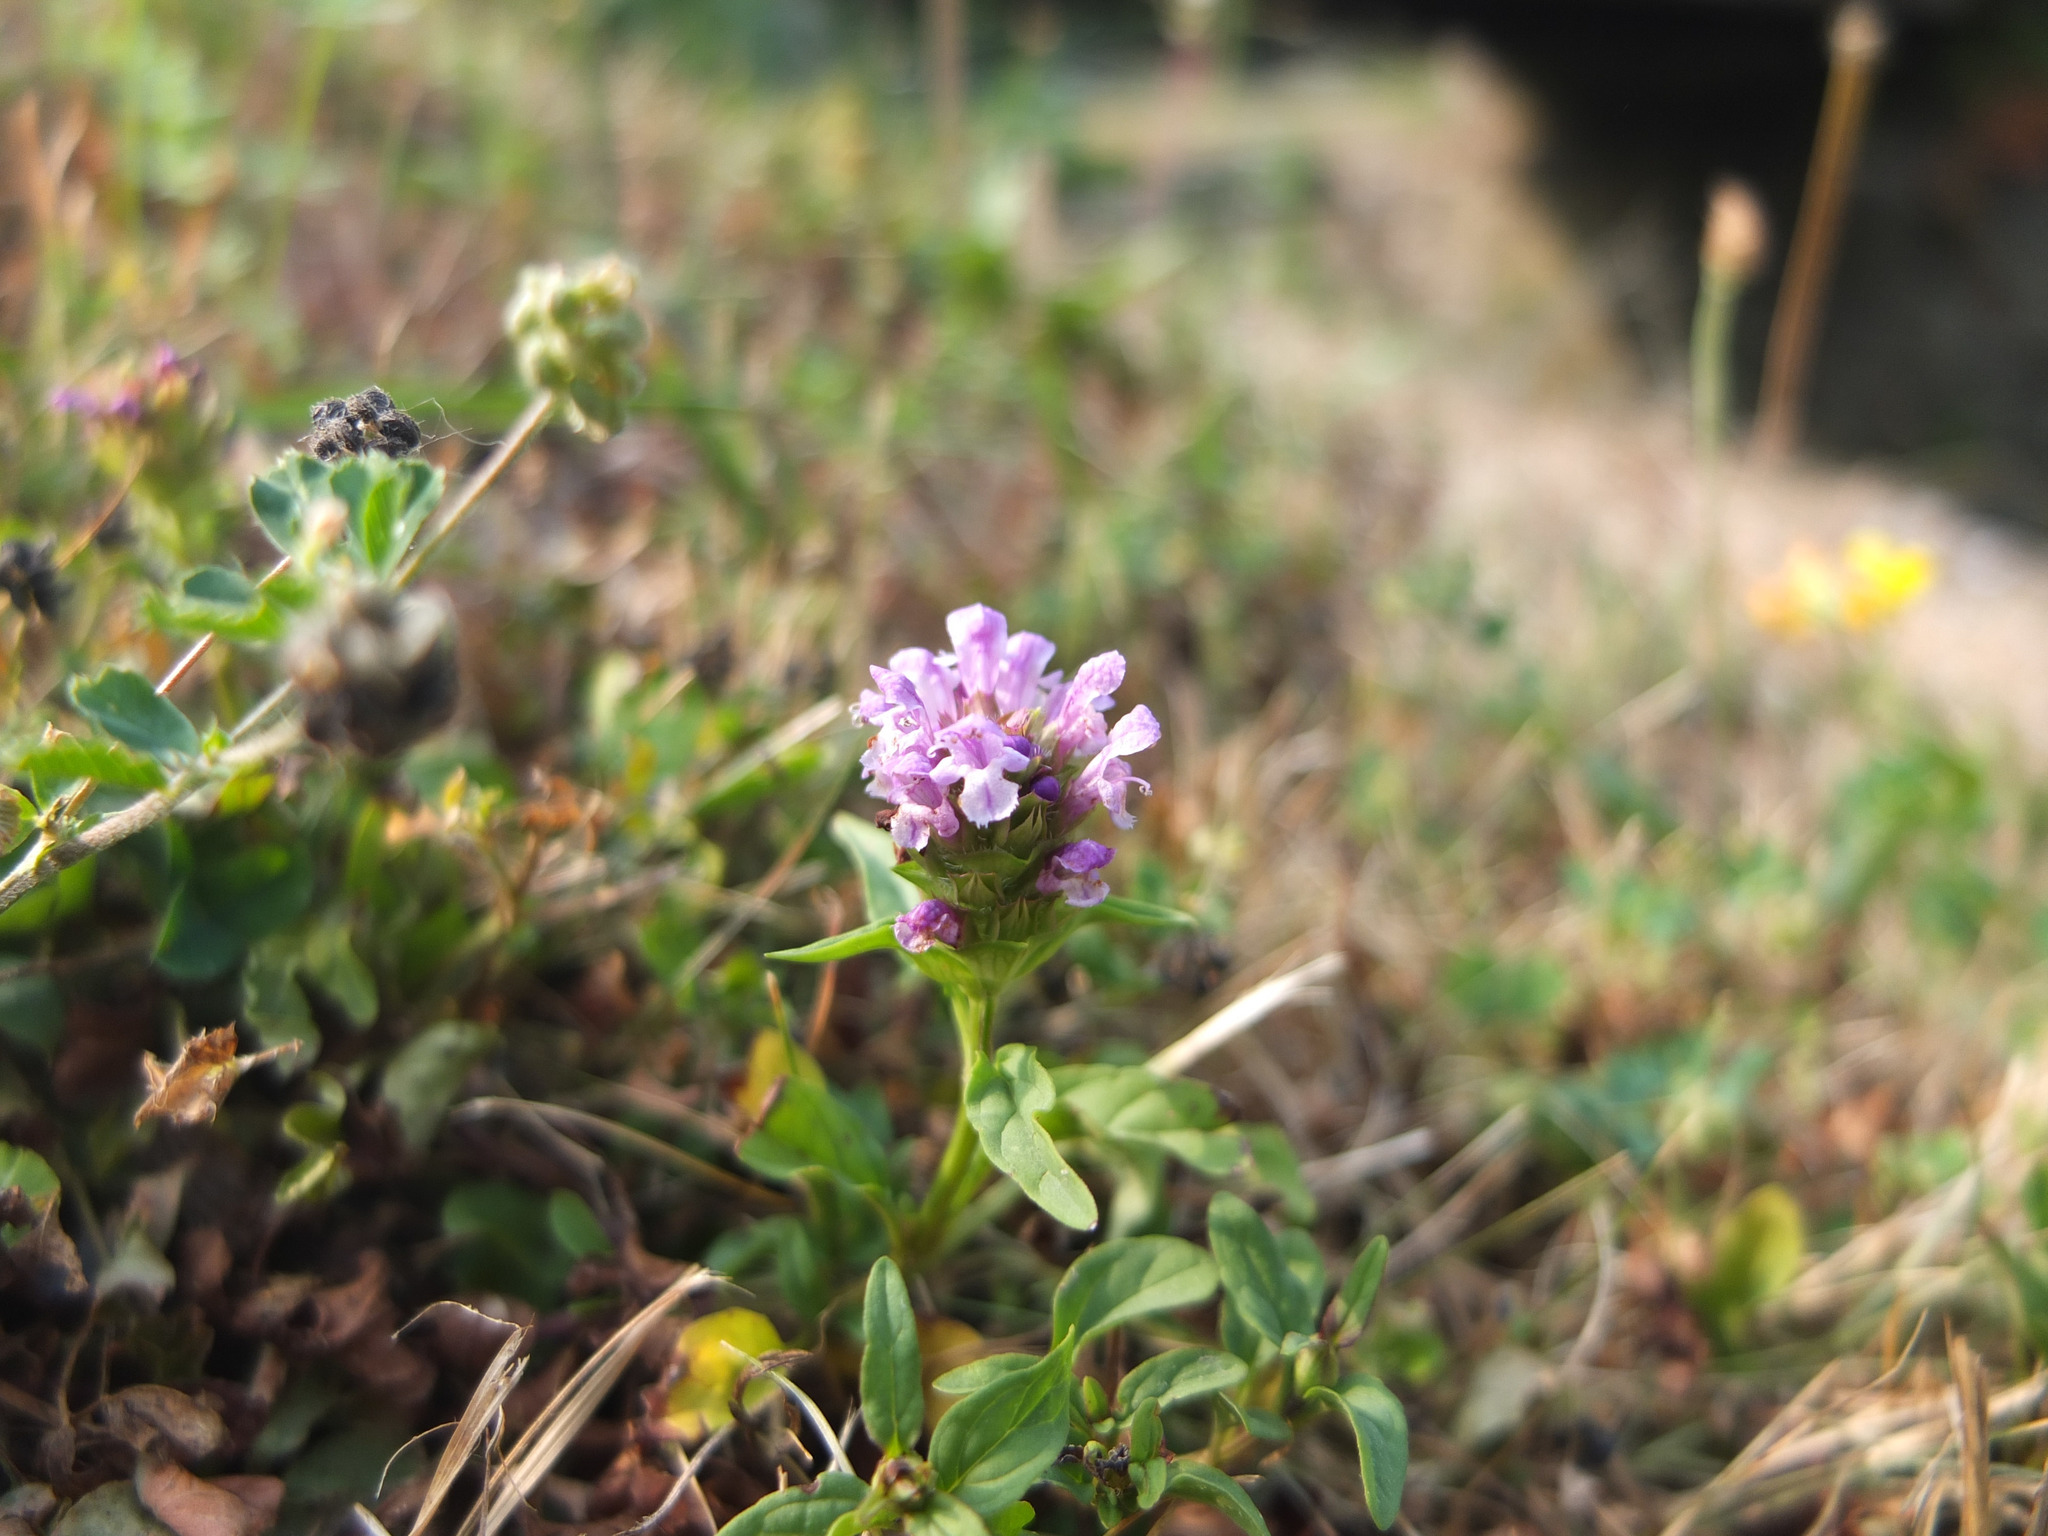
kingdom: Plantae
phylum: Tracheophyta
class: Magnoliopsida
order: Lamiales
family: Lamiaceae
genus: Prunella
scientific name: Prunella vulgaris
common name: Heal-all
